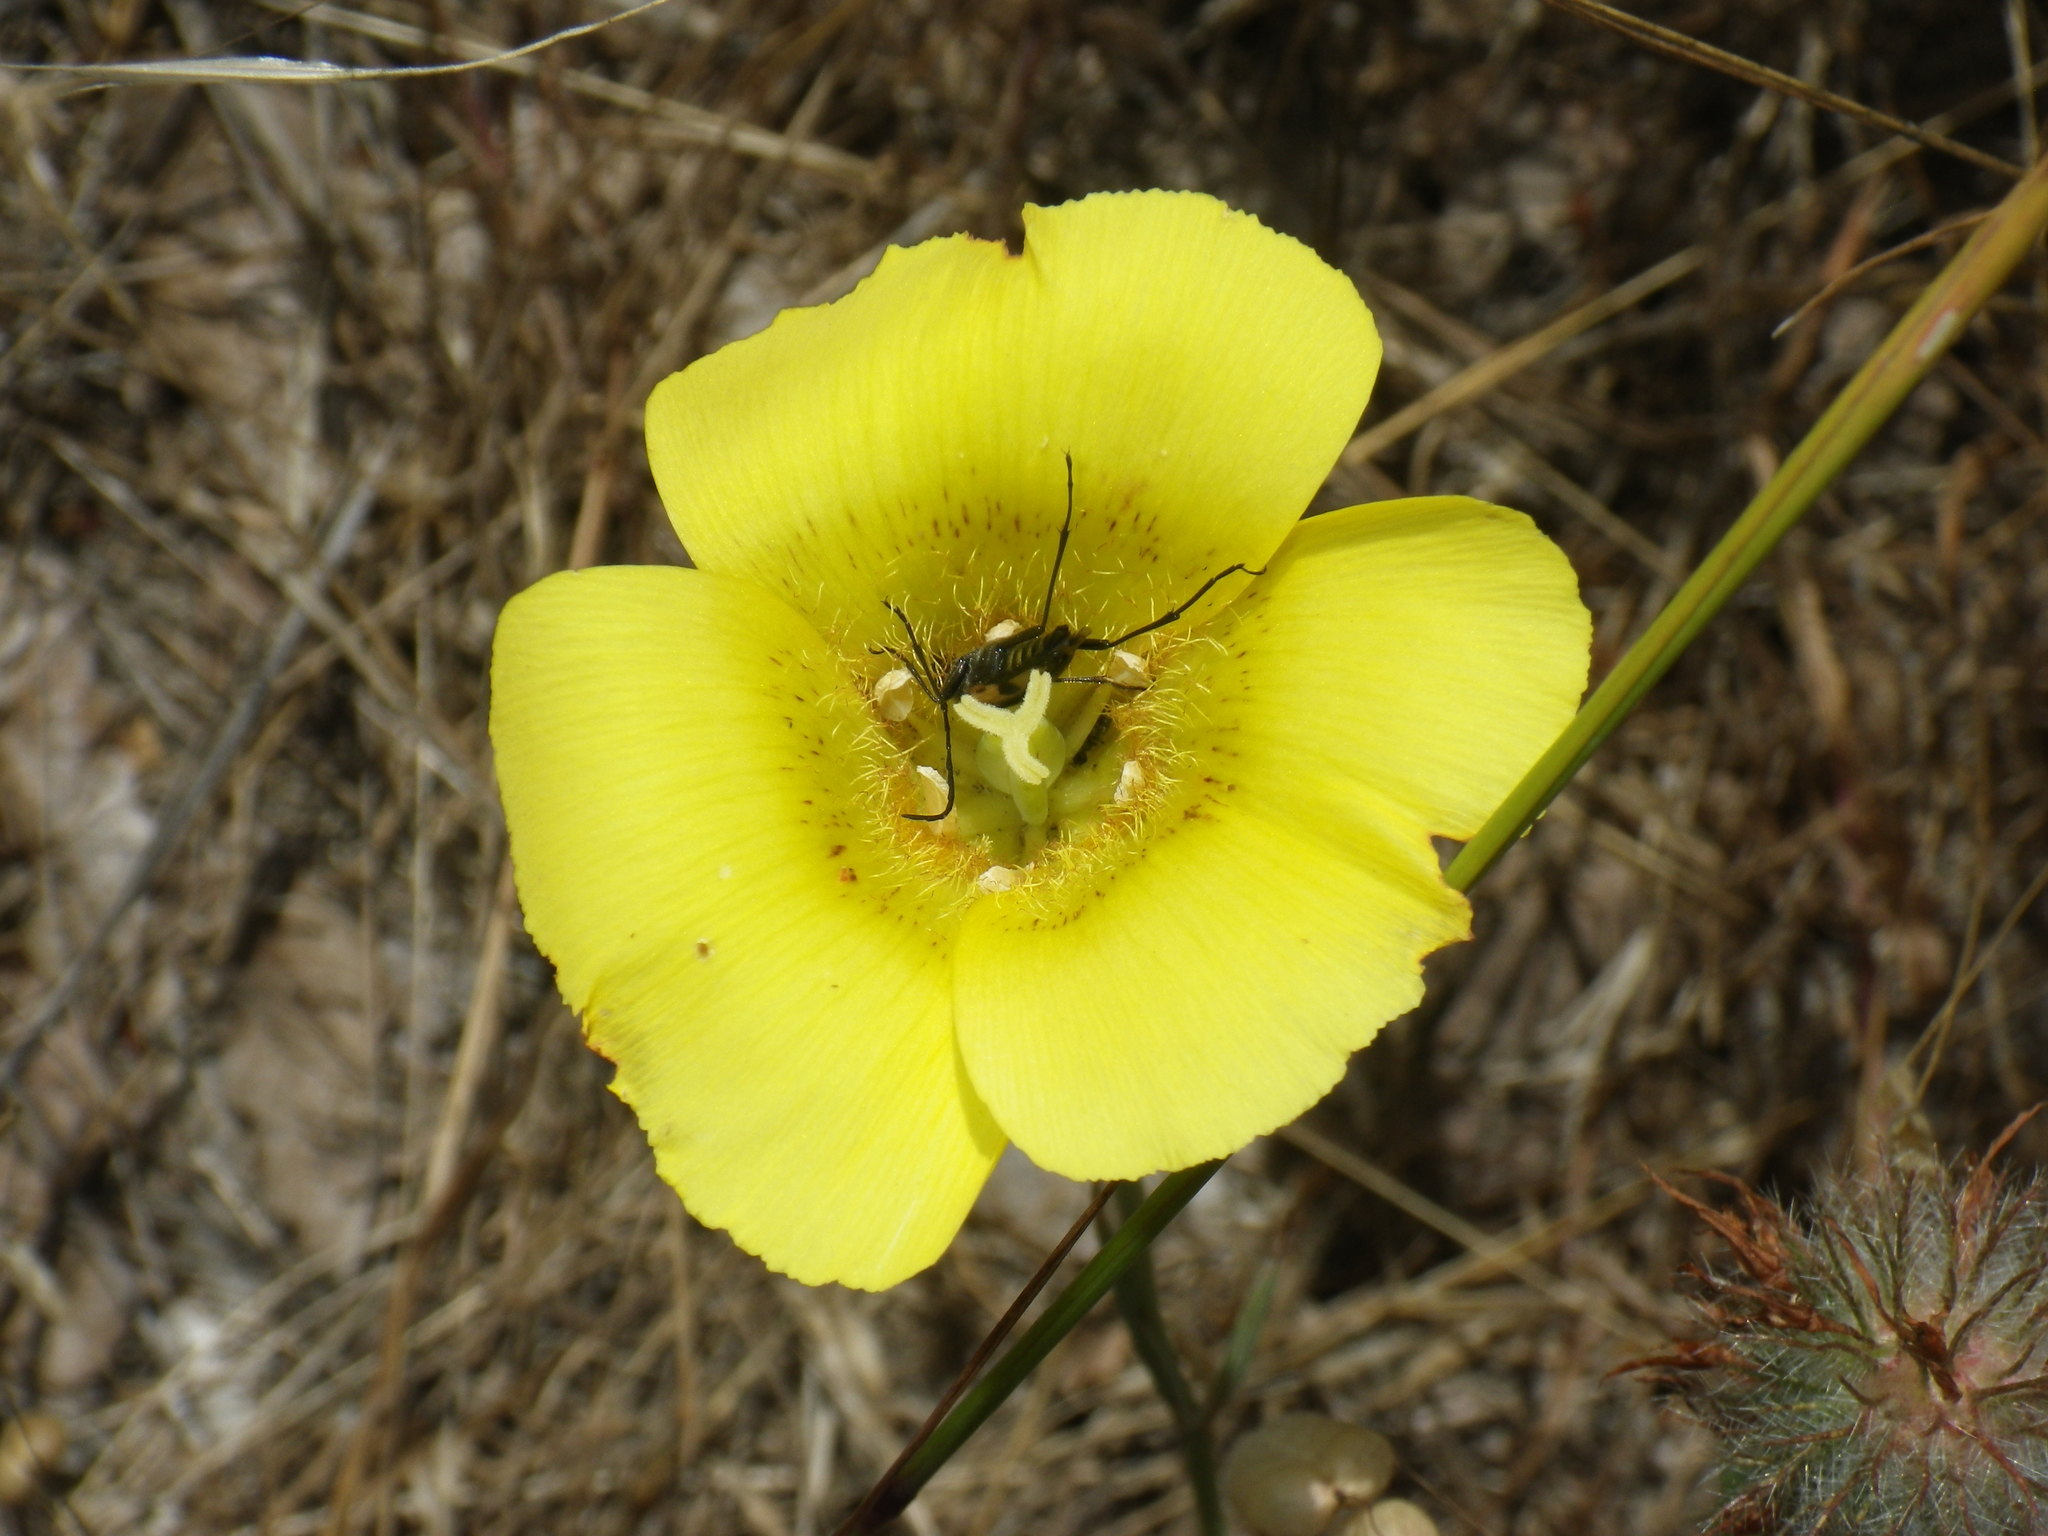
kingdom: Plantae
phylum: Tracheophyta
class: Liliopsida
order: Liliales
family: Liliaceae
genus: Calochortus
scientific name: Calochortus luteus
